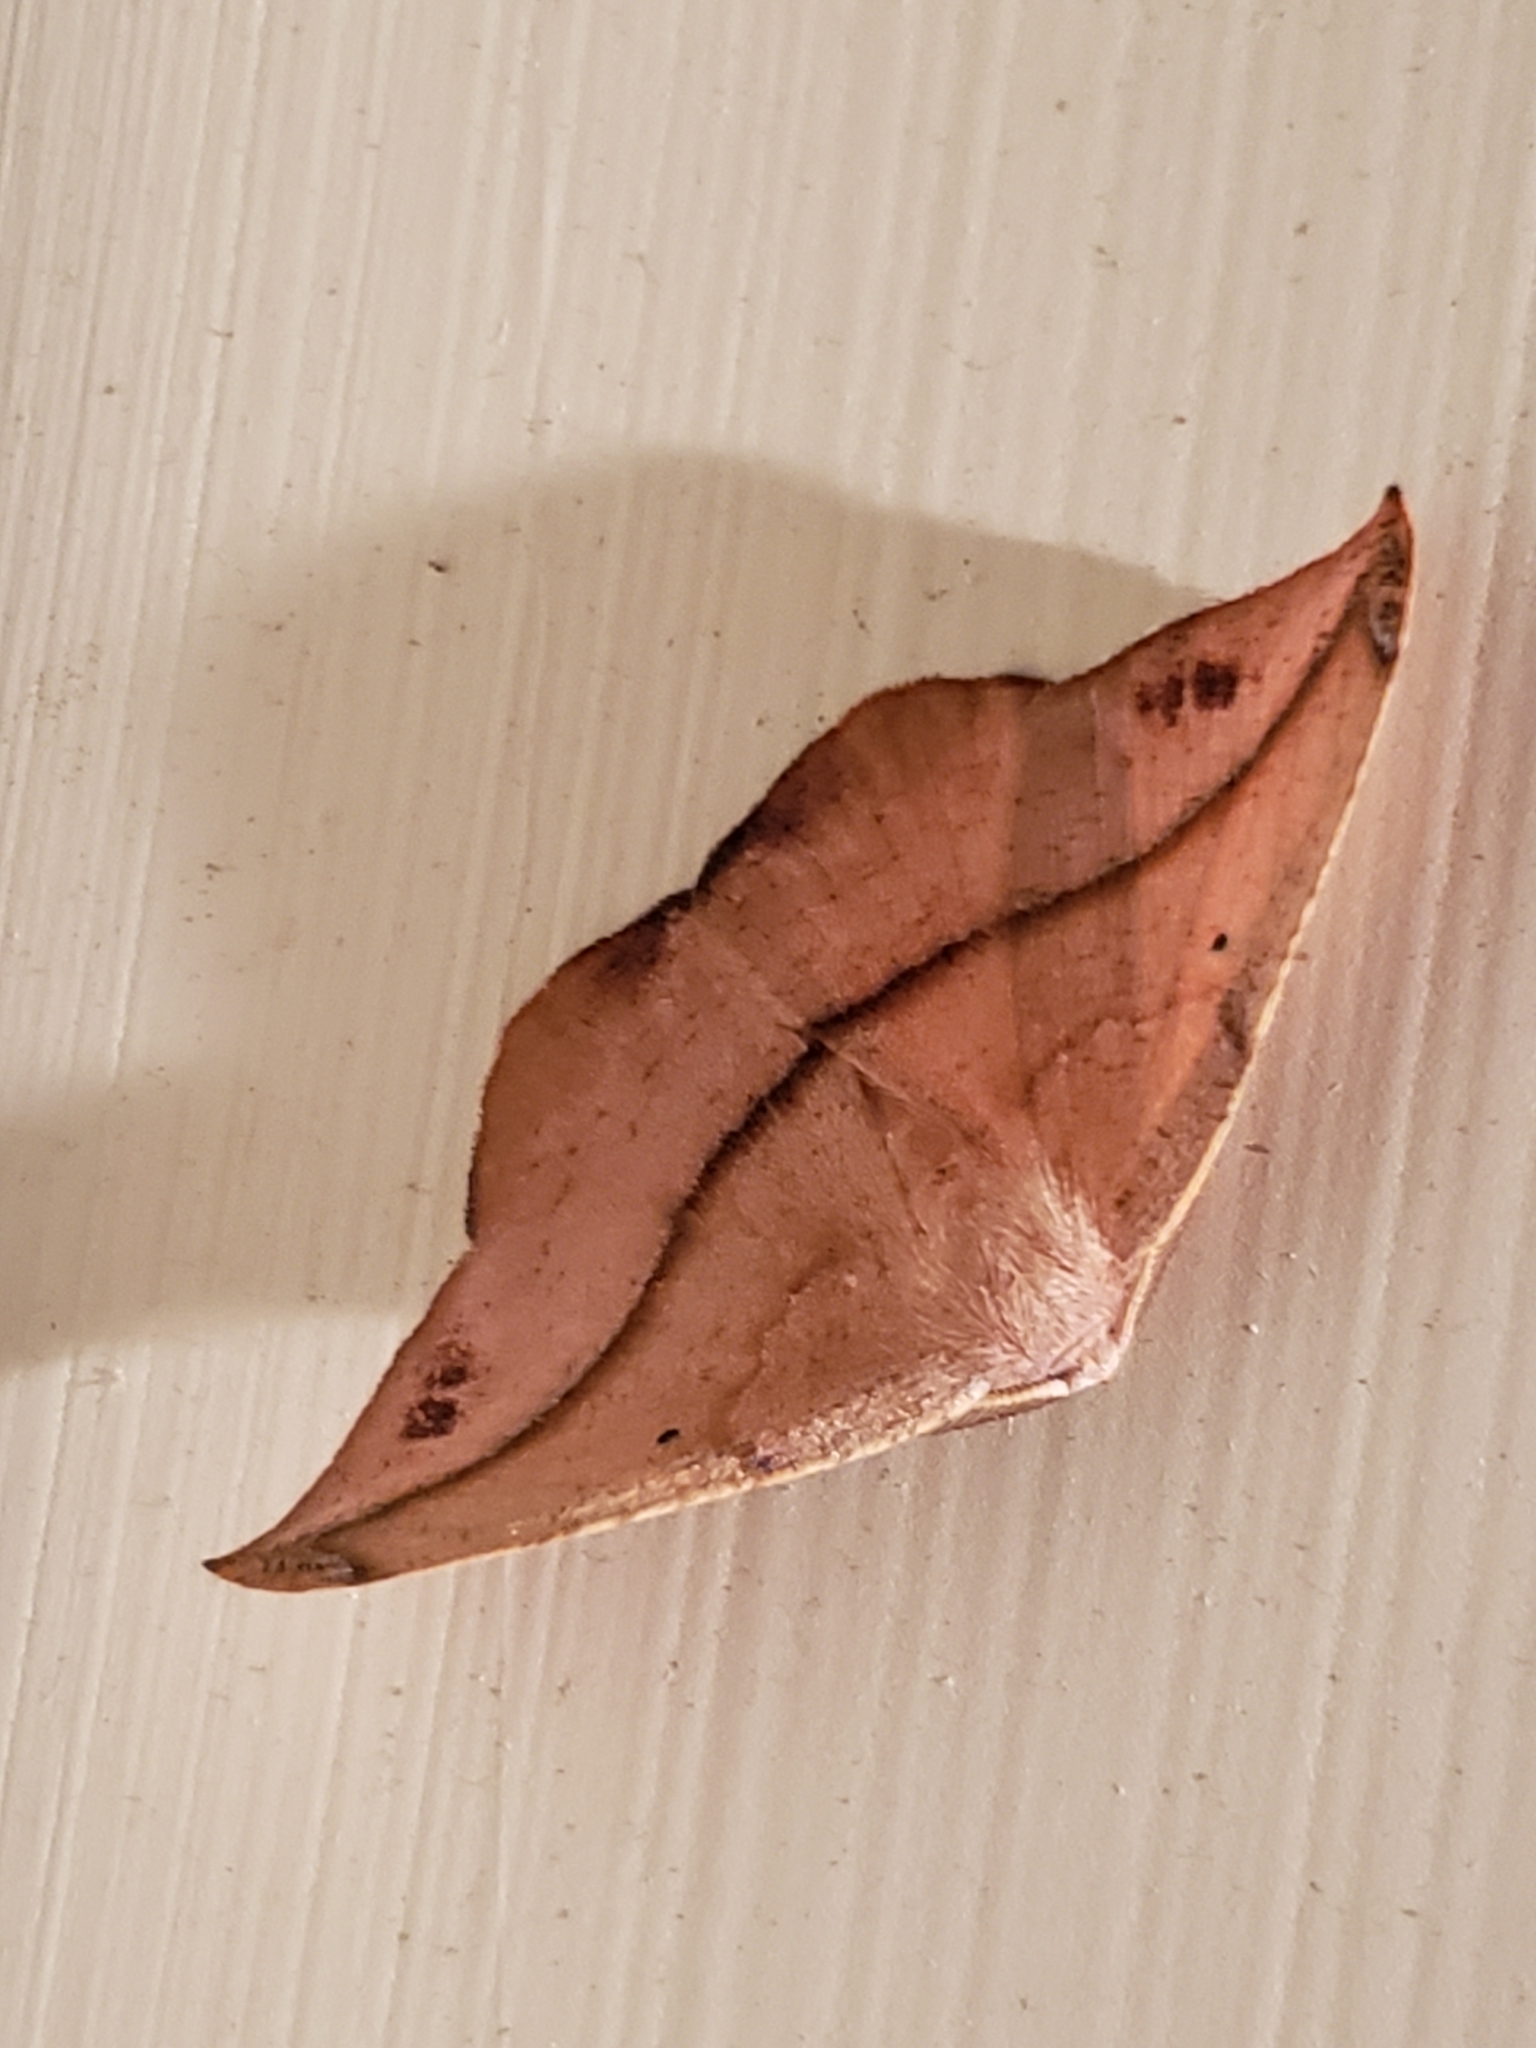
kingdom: Animalia
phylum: Arthropoda
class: Insecta
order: Lepidoptera
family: Geometridae
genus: Patalene
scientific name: Patalene olyzonaria
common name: Juniper geometer moth
